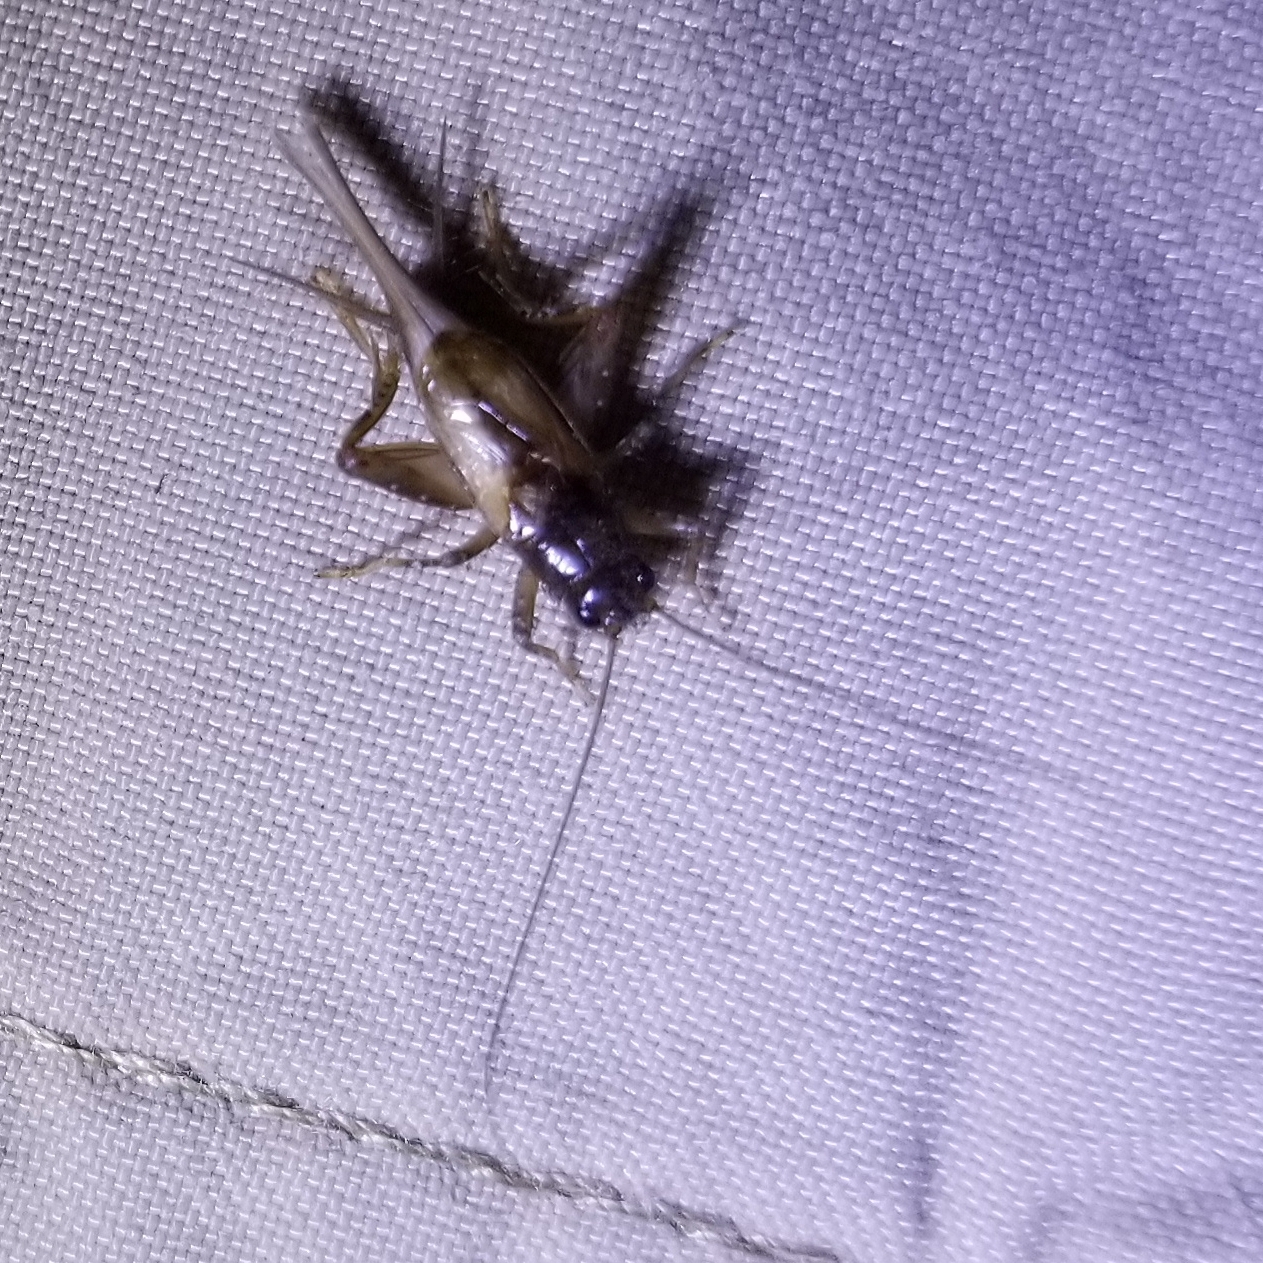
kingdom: Animalia
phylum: Arthropoda
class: Insecta
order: Orthoptera
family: Trigonidiidae
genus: Eunemobius
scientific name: Eunemobius carolinus
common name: Carolina ground cricket
